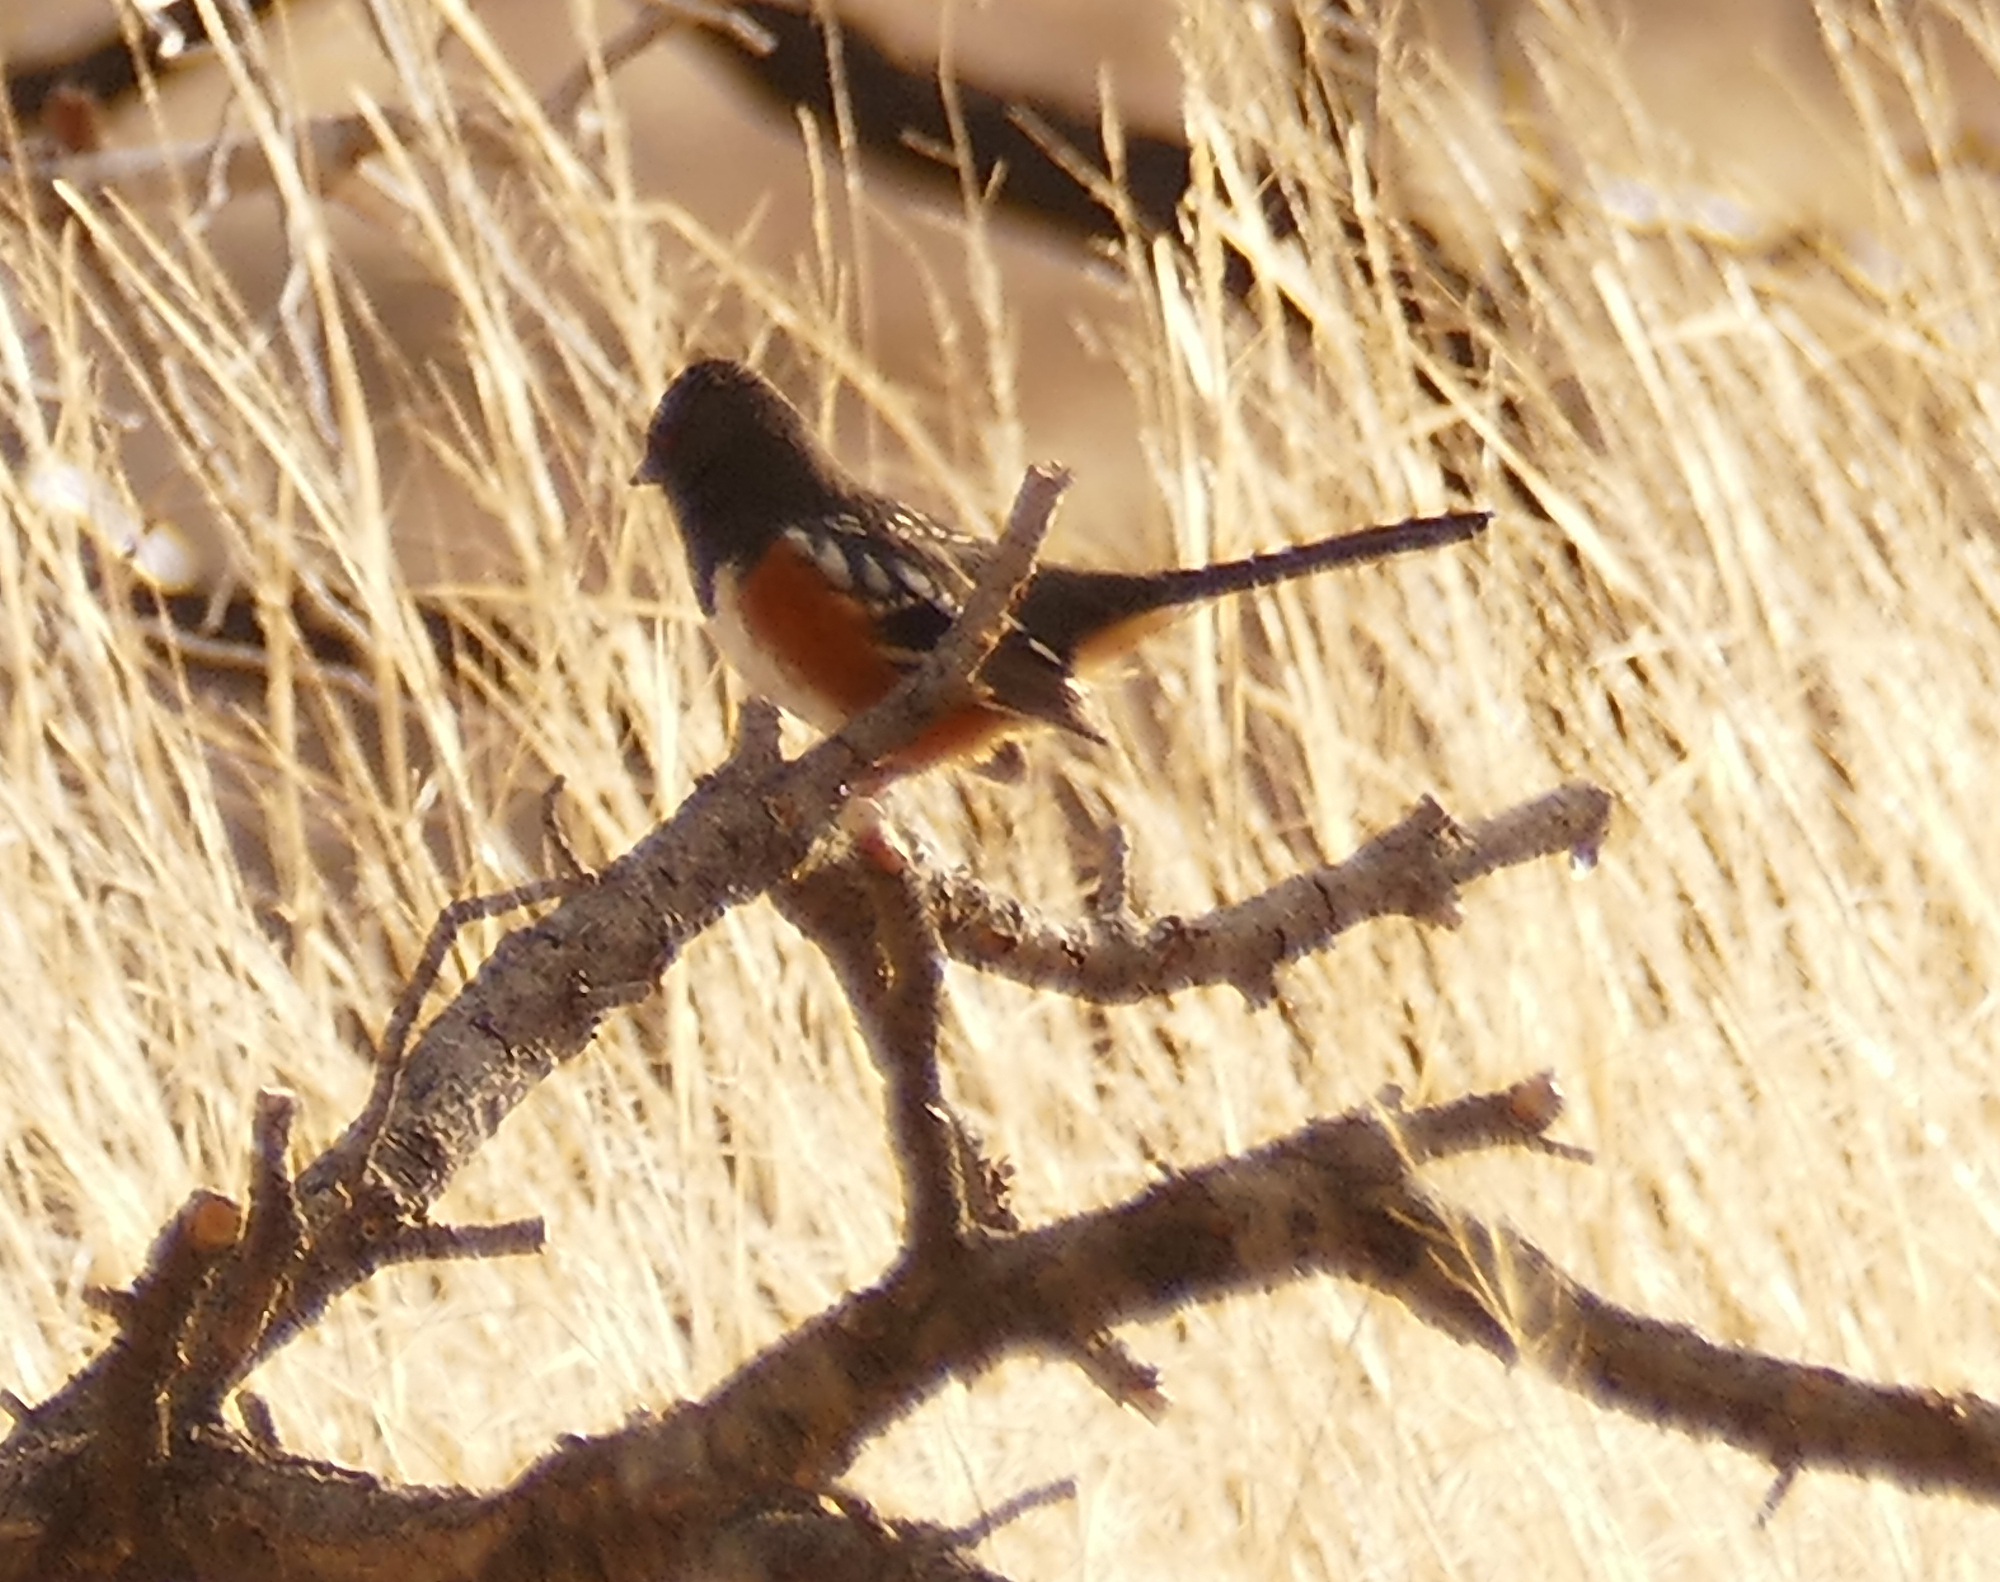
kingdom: Animalia
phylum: Chordata
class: Aves
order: Passeriformes
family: Passerellidae
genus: Pipilo
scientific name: Pipilo maculatus
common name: Spotted towhee
